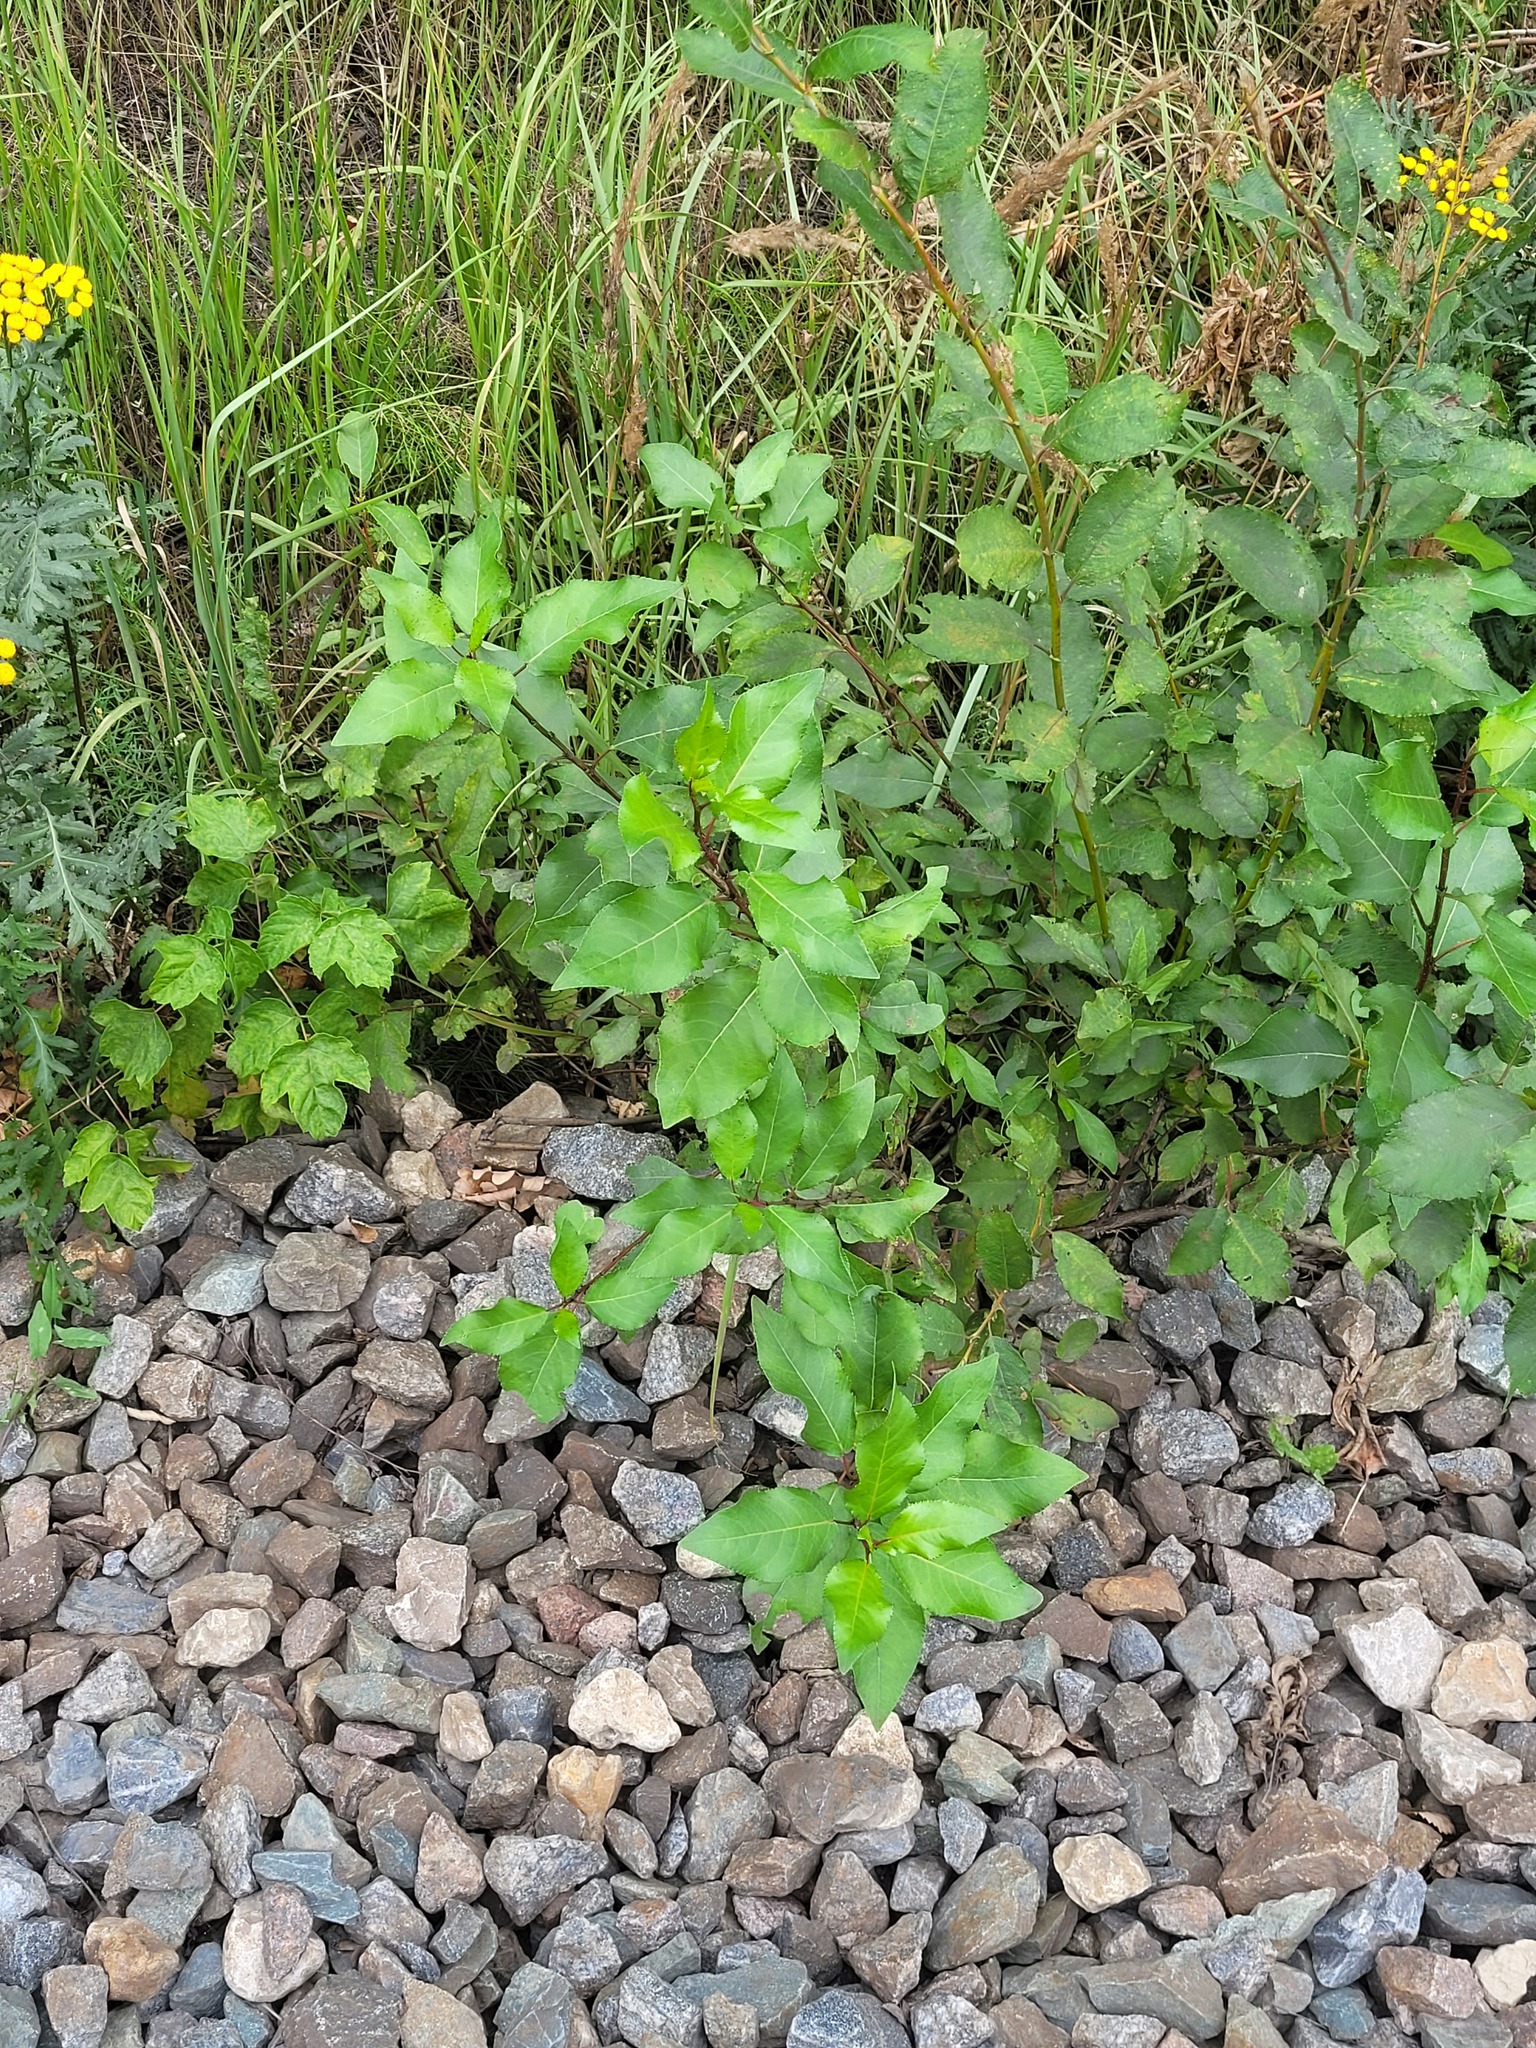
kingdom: Plantae
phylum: Tracheophyta
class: Magnoliopsida
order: Malpighiales
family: Salicaceae
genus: Populus
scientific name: Populus
